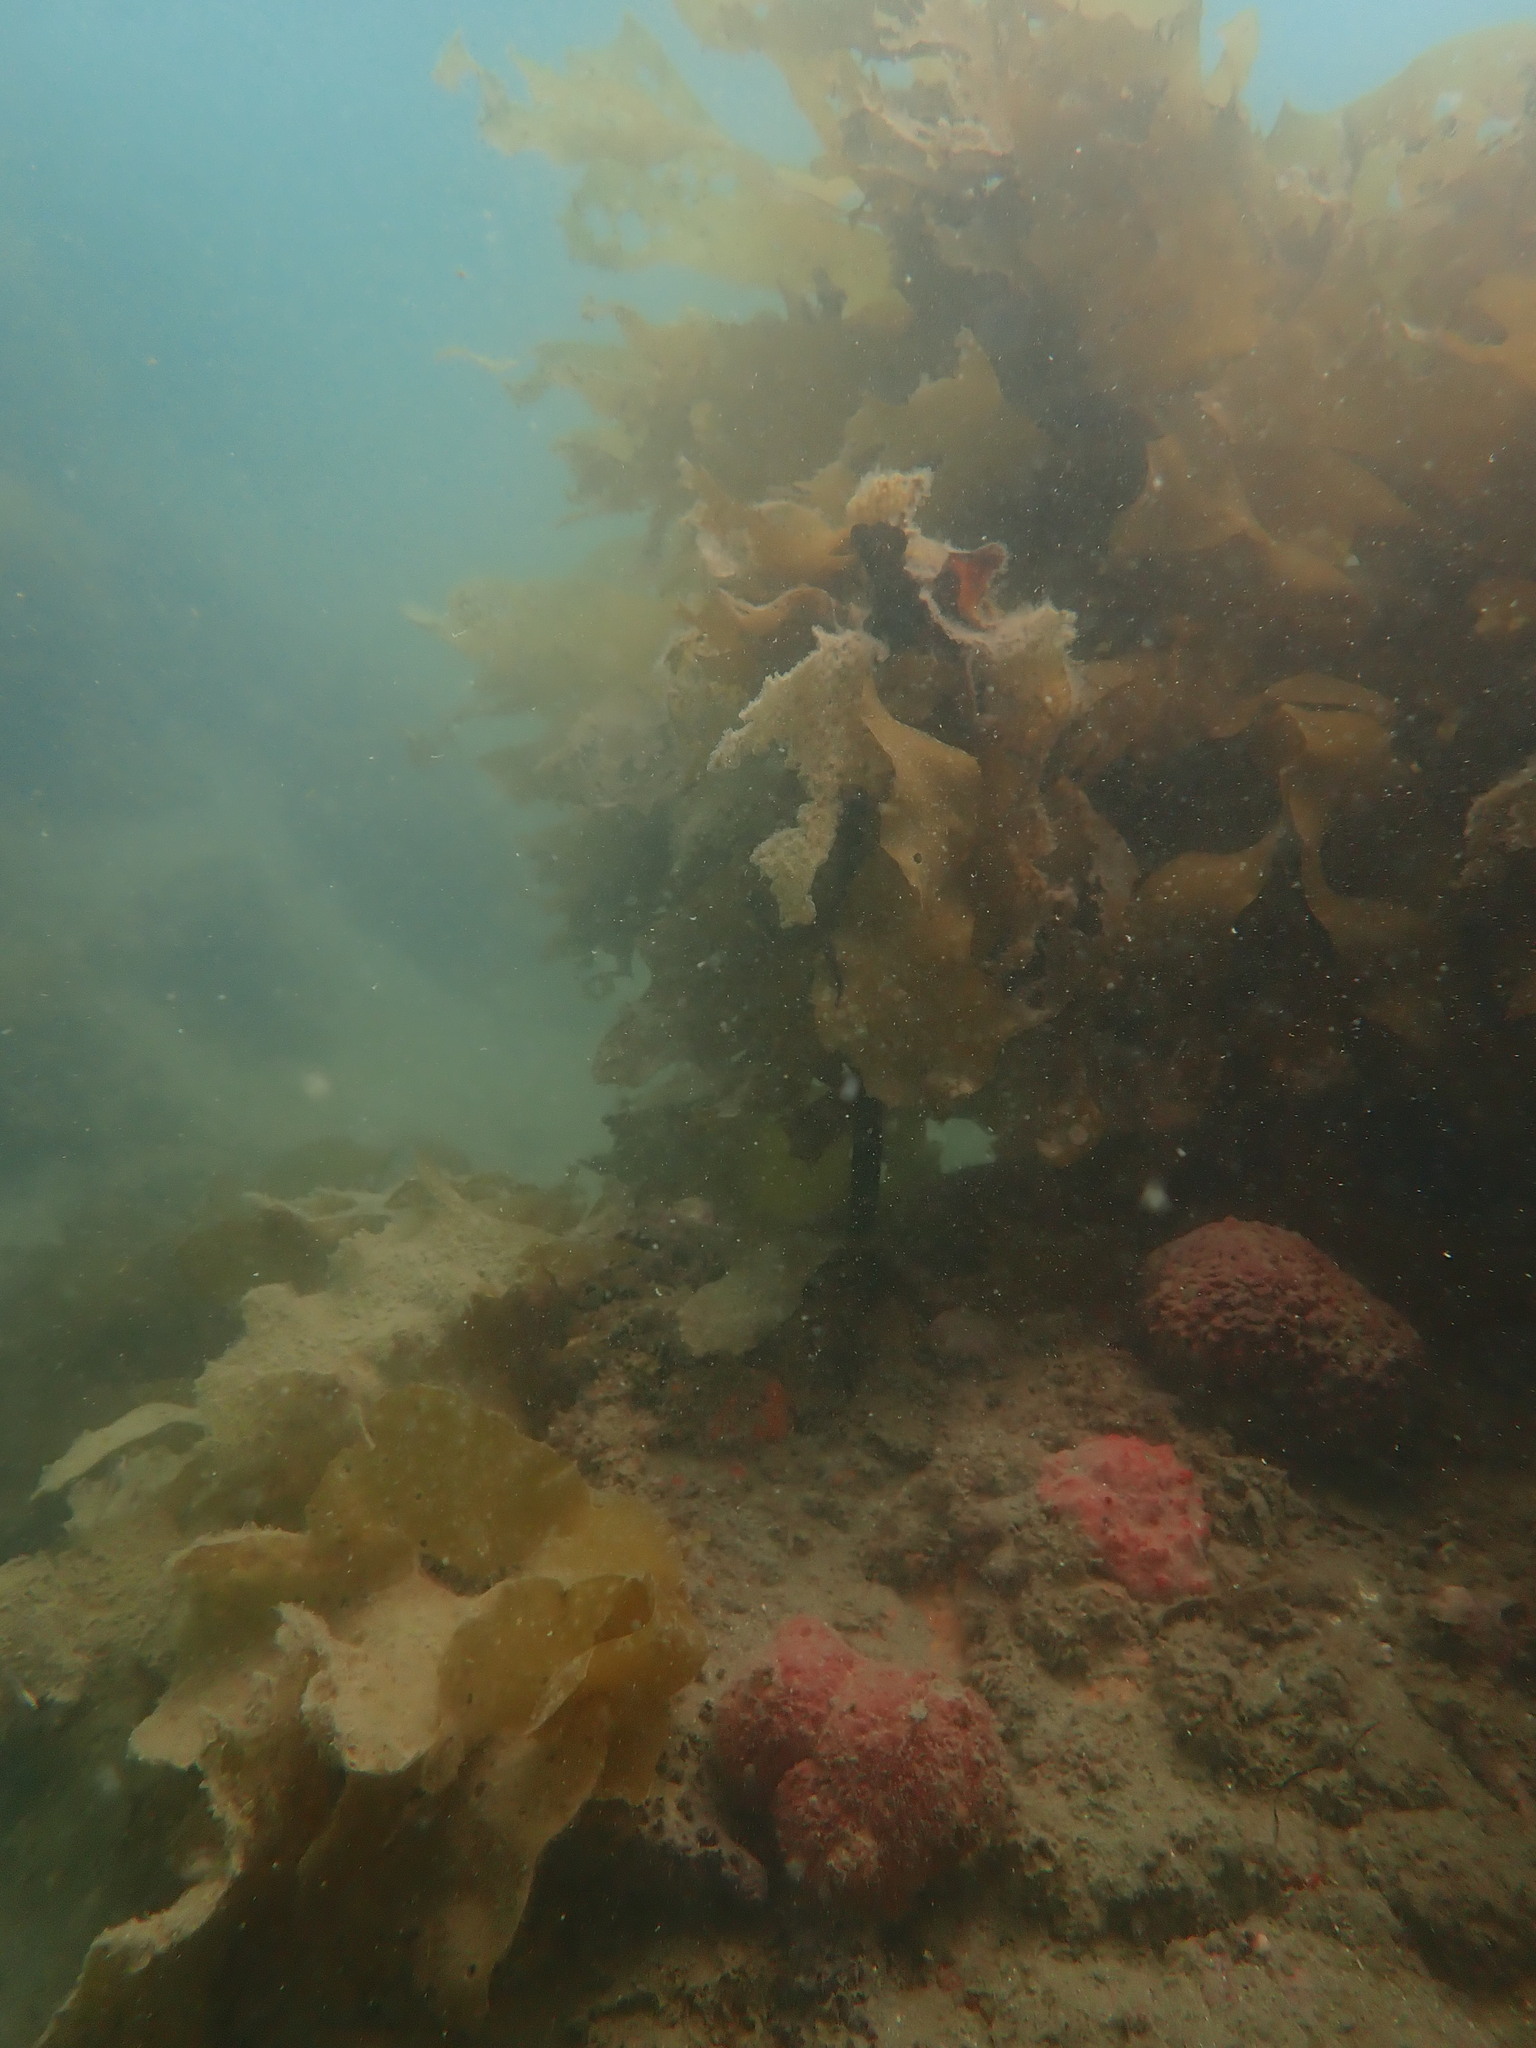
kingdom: Chromista
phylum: Ochrophyta
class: Phaeophyceae
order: Laminariales
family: Lessoniaceae
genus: Ecklonia
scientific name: Ecklonia radiata
